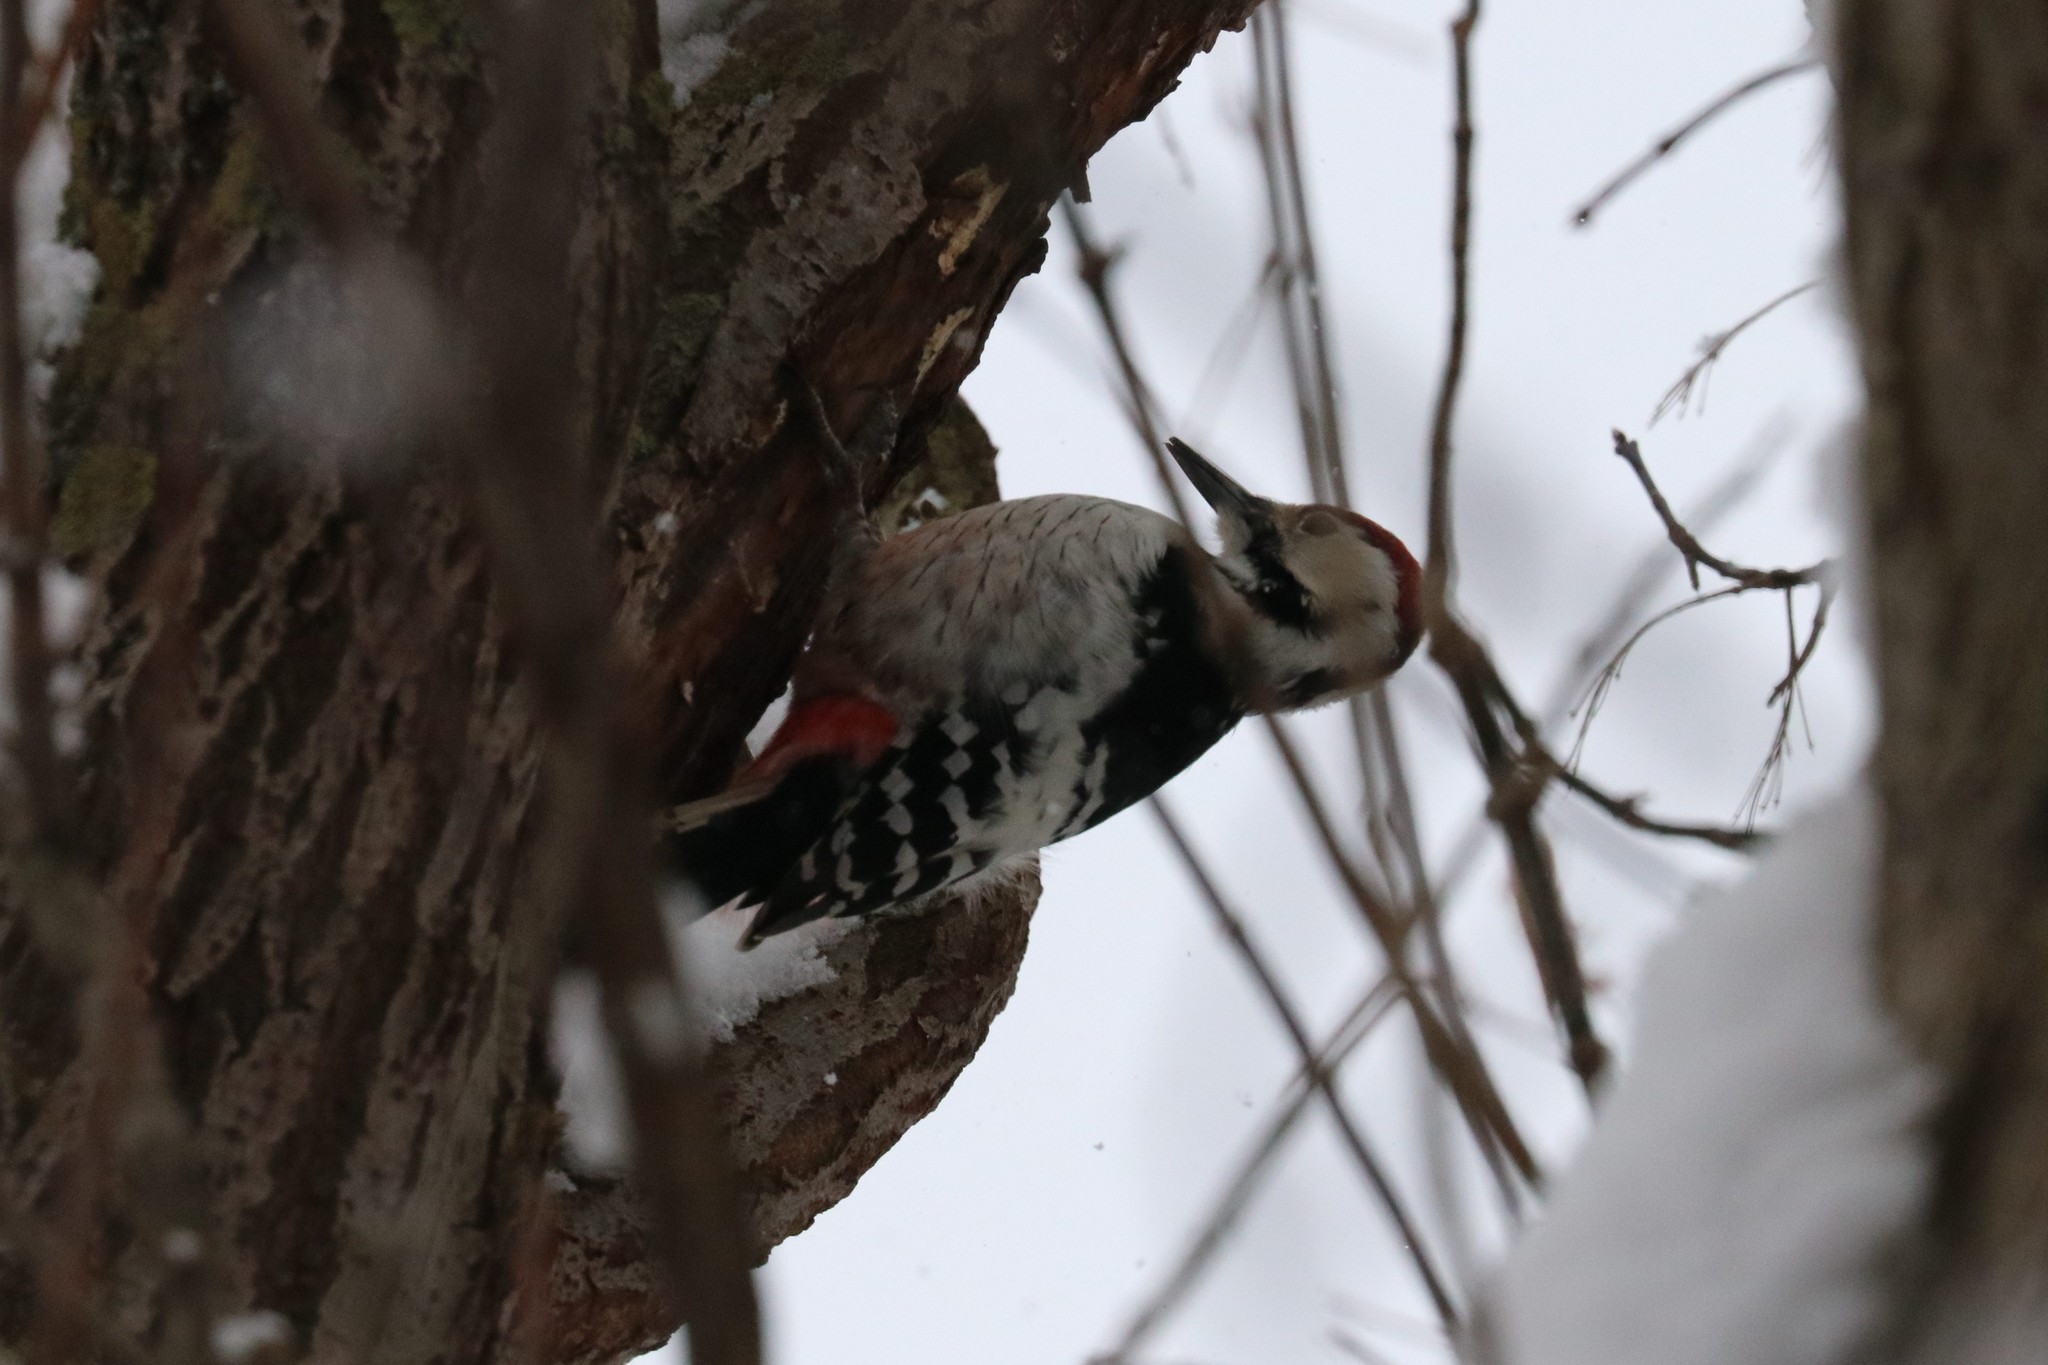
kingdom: Animalia
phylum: Chordata
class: Aves
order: Piciformes
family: Picidae
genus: Dendrocopos
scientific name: Dendrocopos leucotos
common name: White-backed woodpecker
